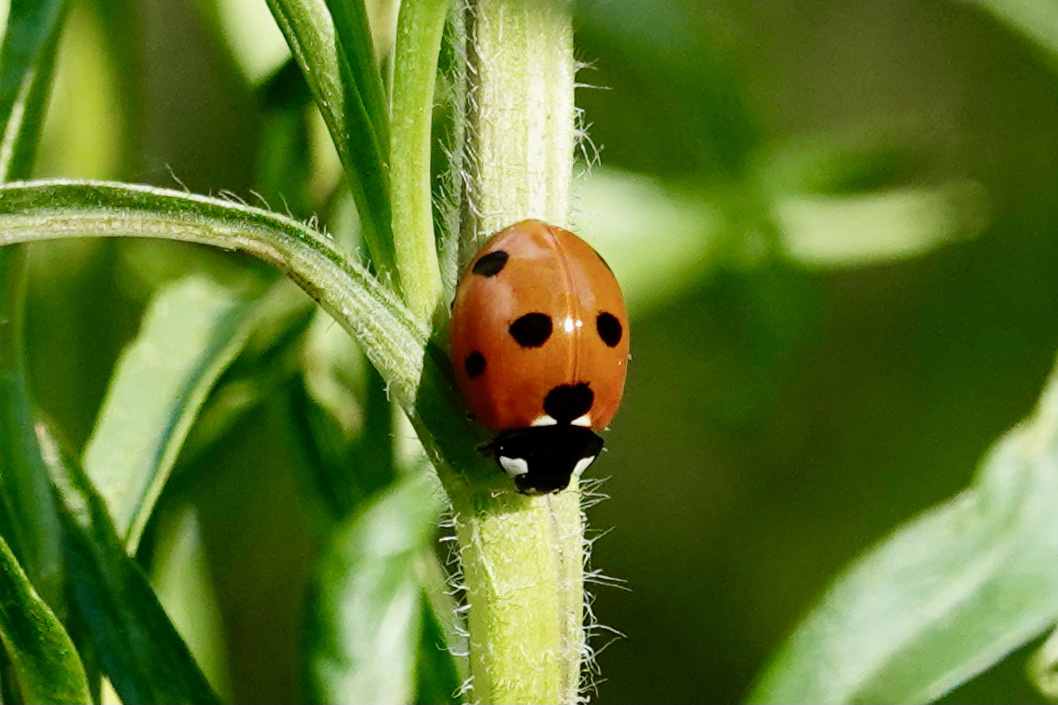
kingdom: Animalia
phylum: Arthropoda
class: Insecta
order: Coleoptera
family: Coccinellidae
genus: Coccinella
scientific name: Coccinella septempunctata
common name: Sevenspotted lady beetle
